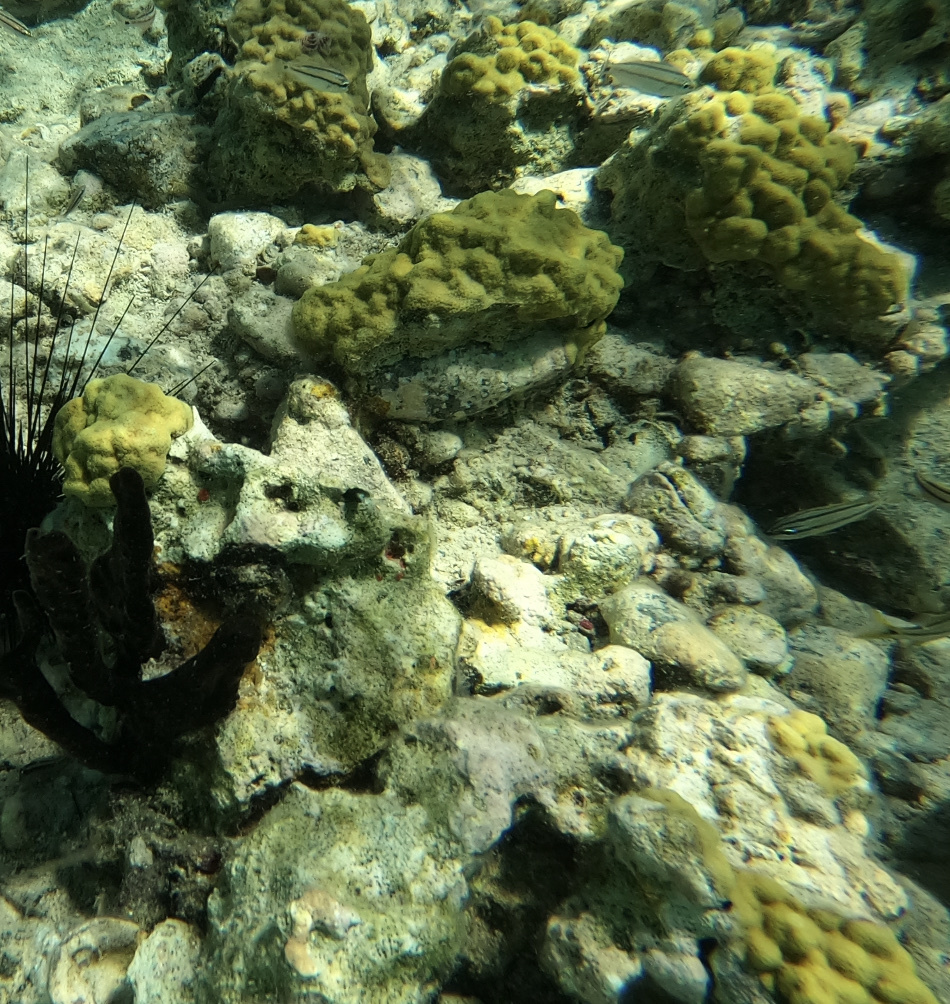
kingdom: Animalia
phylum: Cnidaria
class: Anthozoa
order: Scleractinia
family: Poritidae
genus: Porites
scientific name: Porites astreoides
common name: Mustard hill coral
